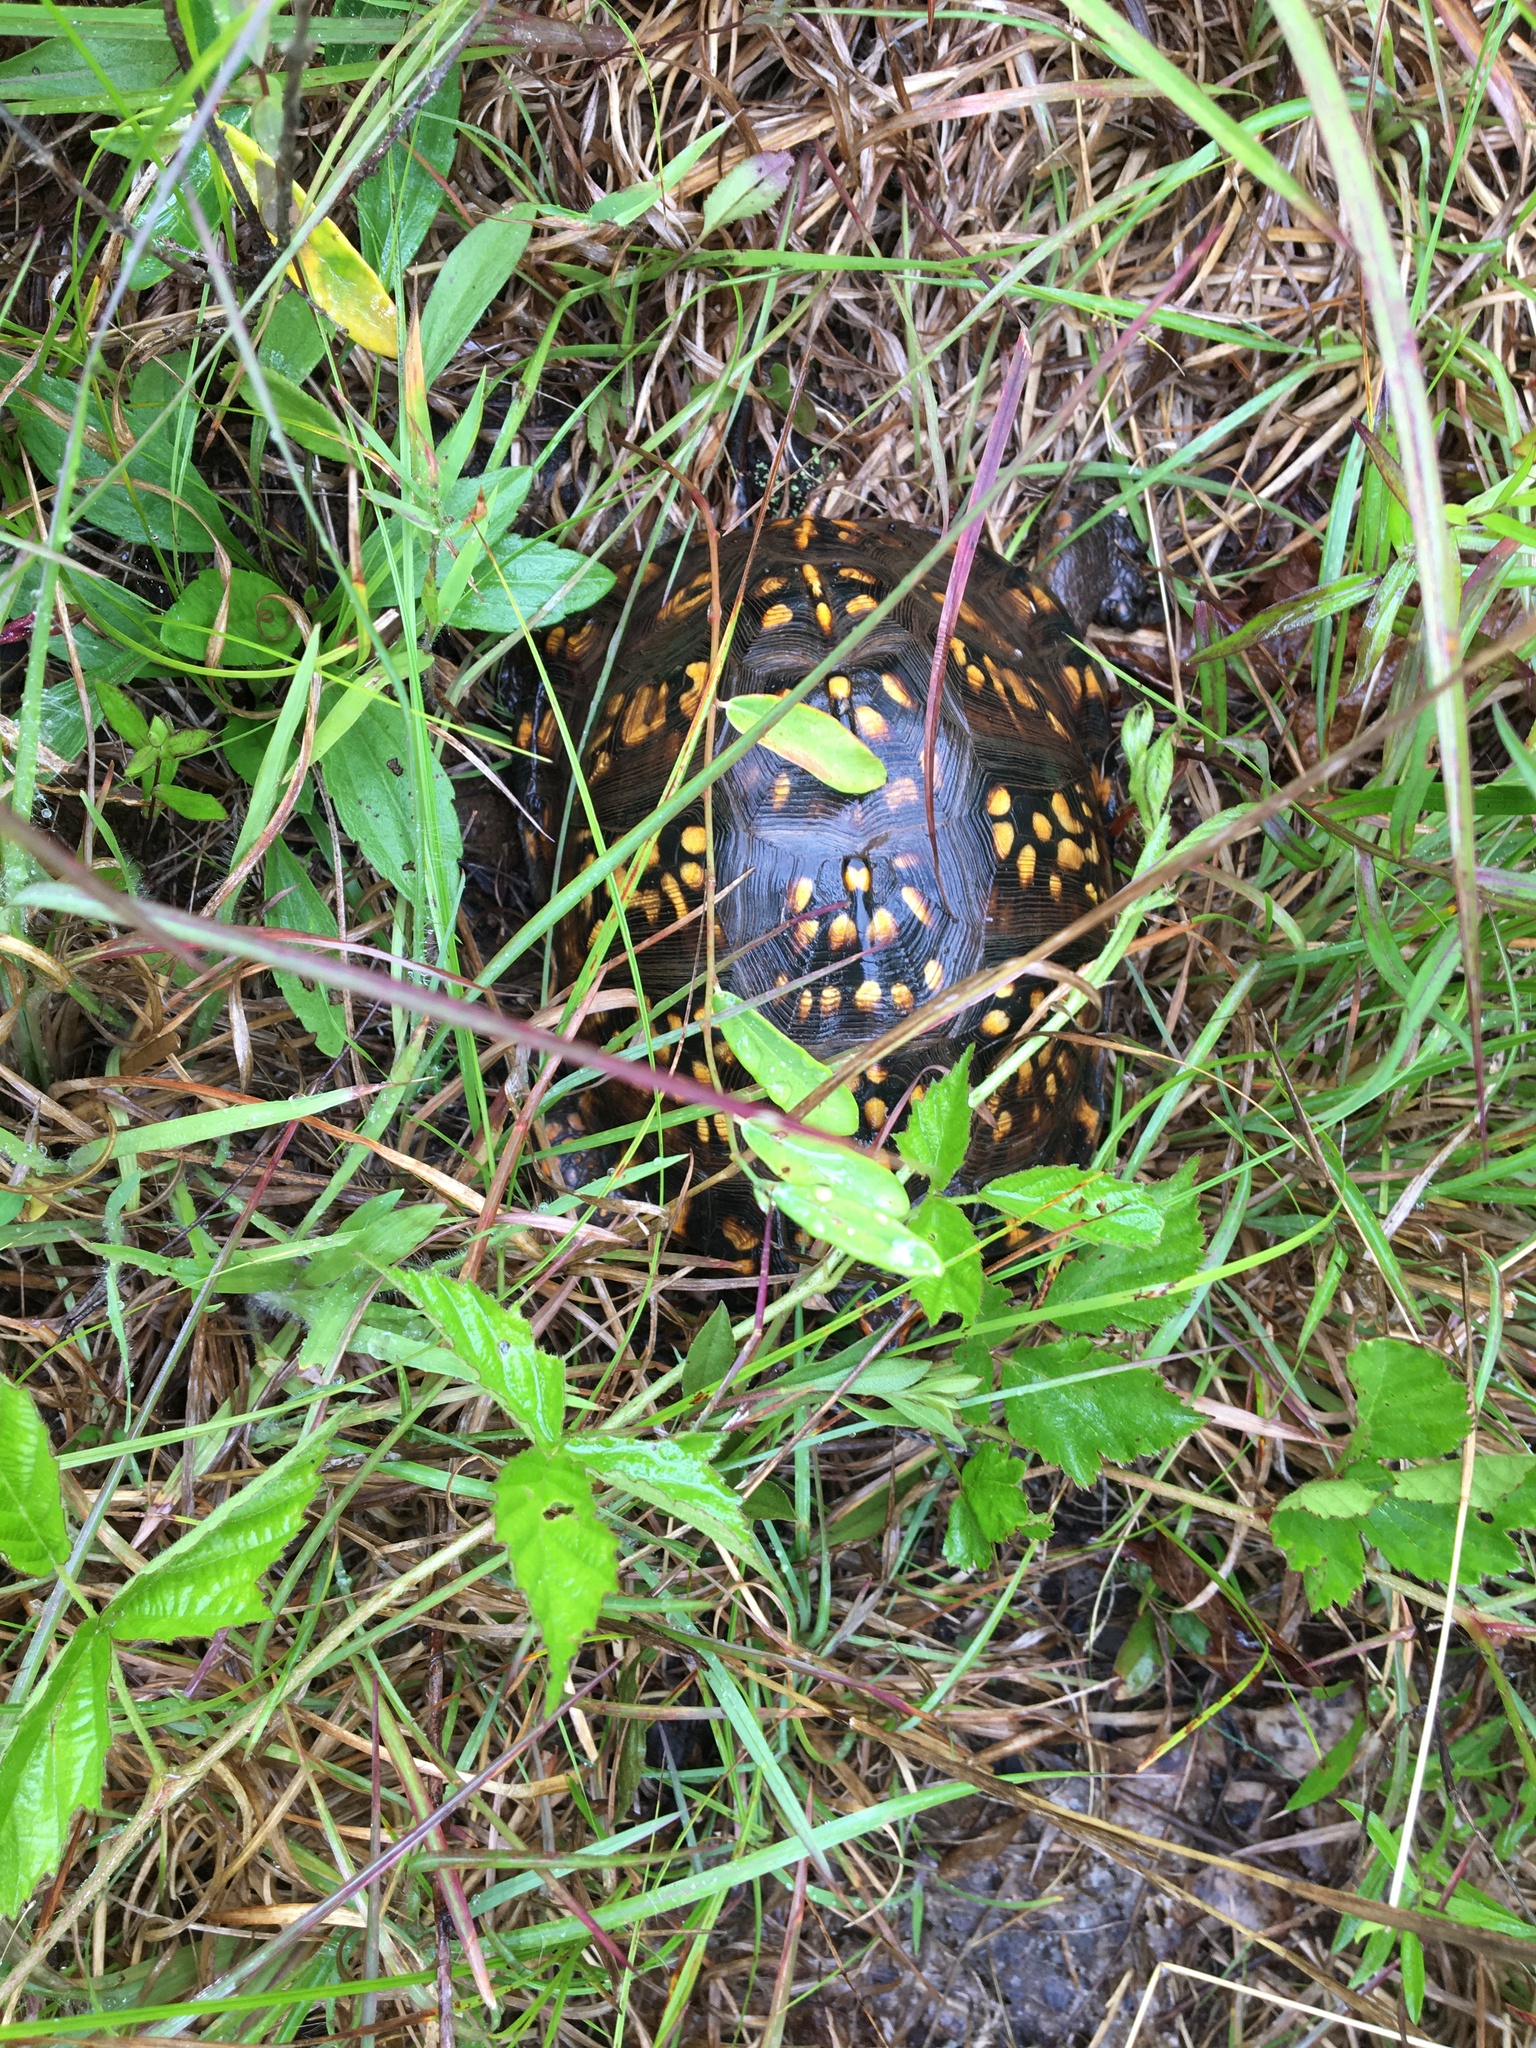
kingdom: Animalia
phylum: Chordata
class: Testudines
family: Emydidae
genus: Terrapene
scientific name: Terrapene carolina
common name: Common box turtle
